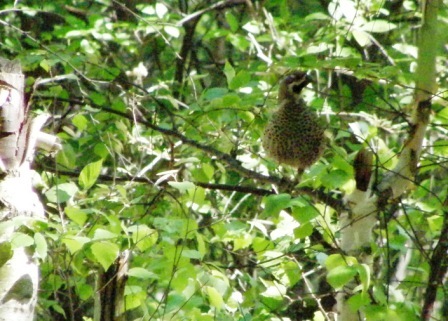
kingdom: Animalia
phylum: Chordata
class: Aves
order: Galliformes
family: Phasianidae
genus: Tetrastes
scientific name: Tetrastes bonasia
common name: Hazel grouse
